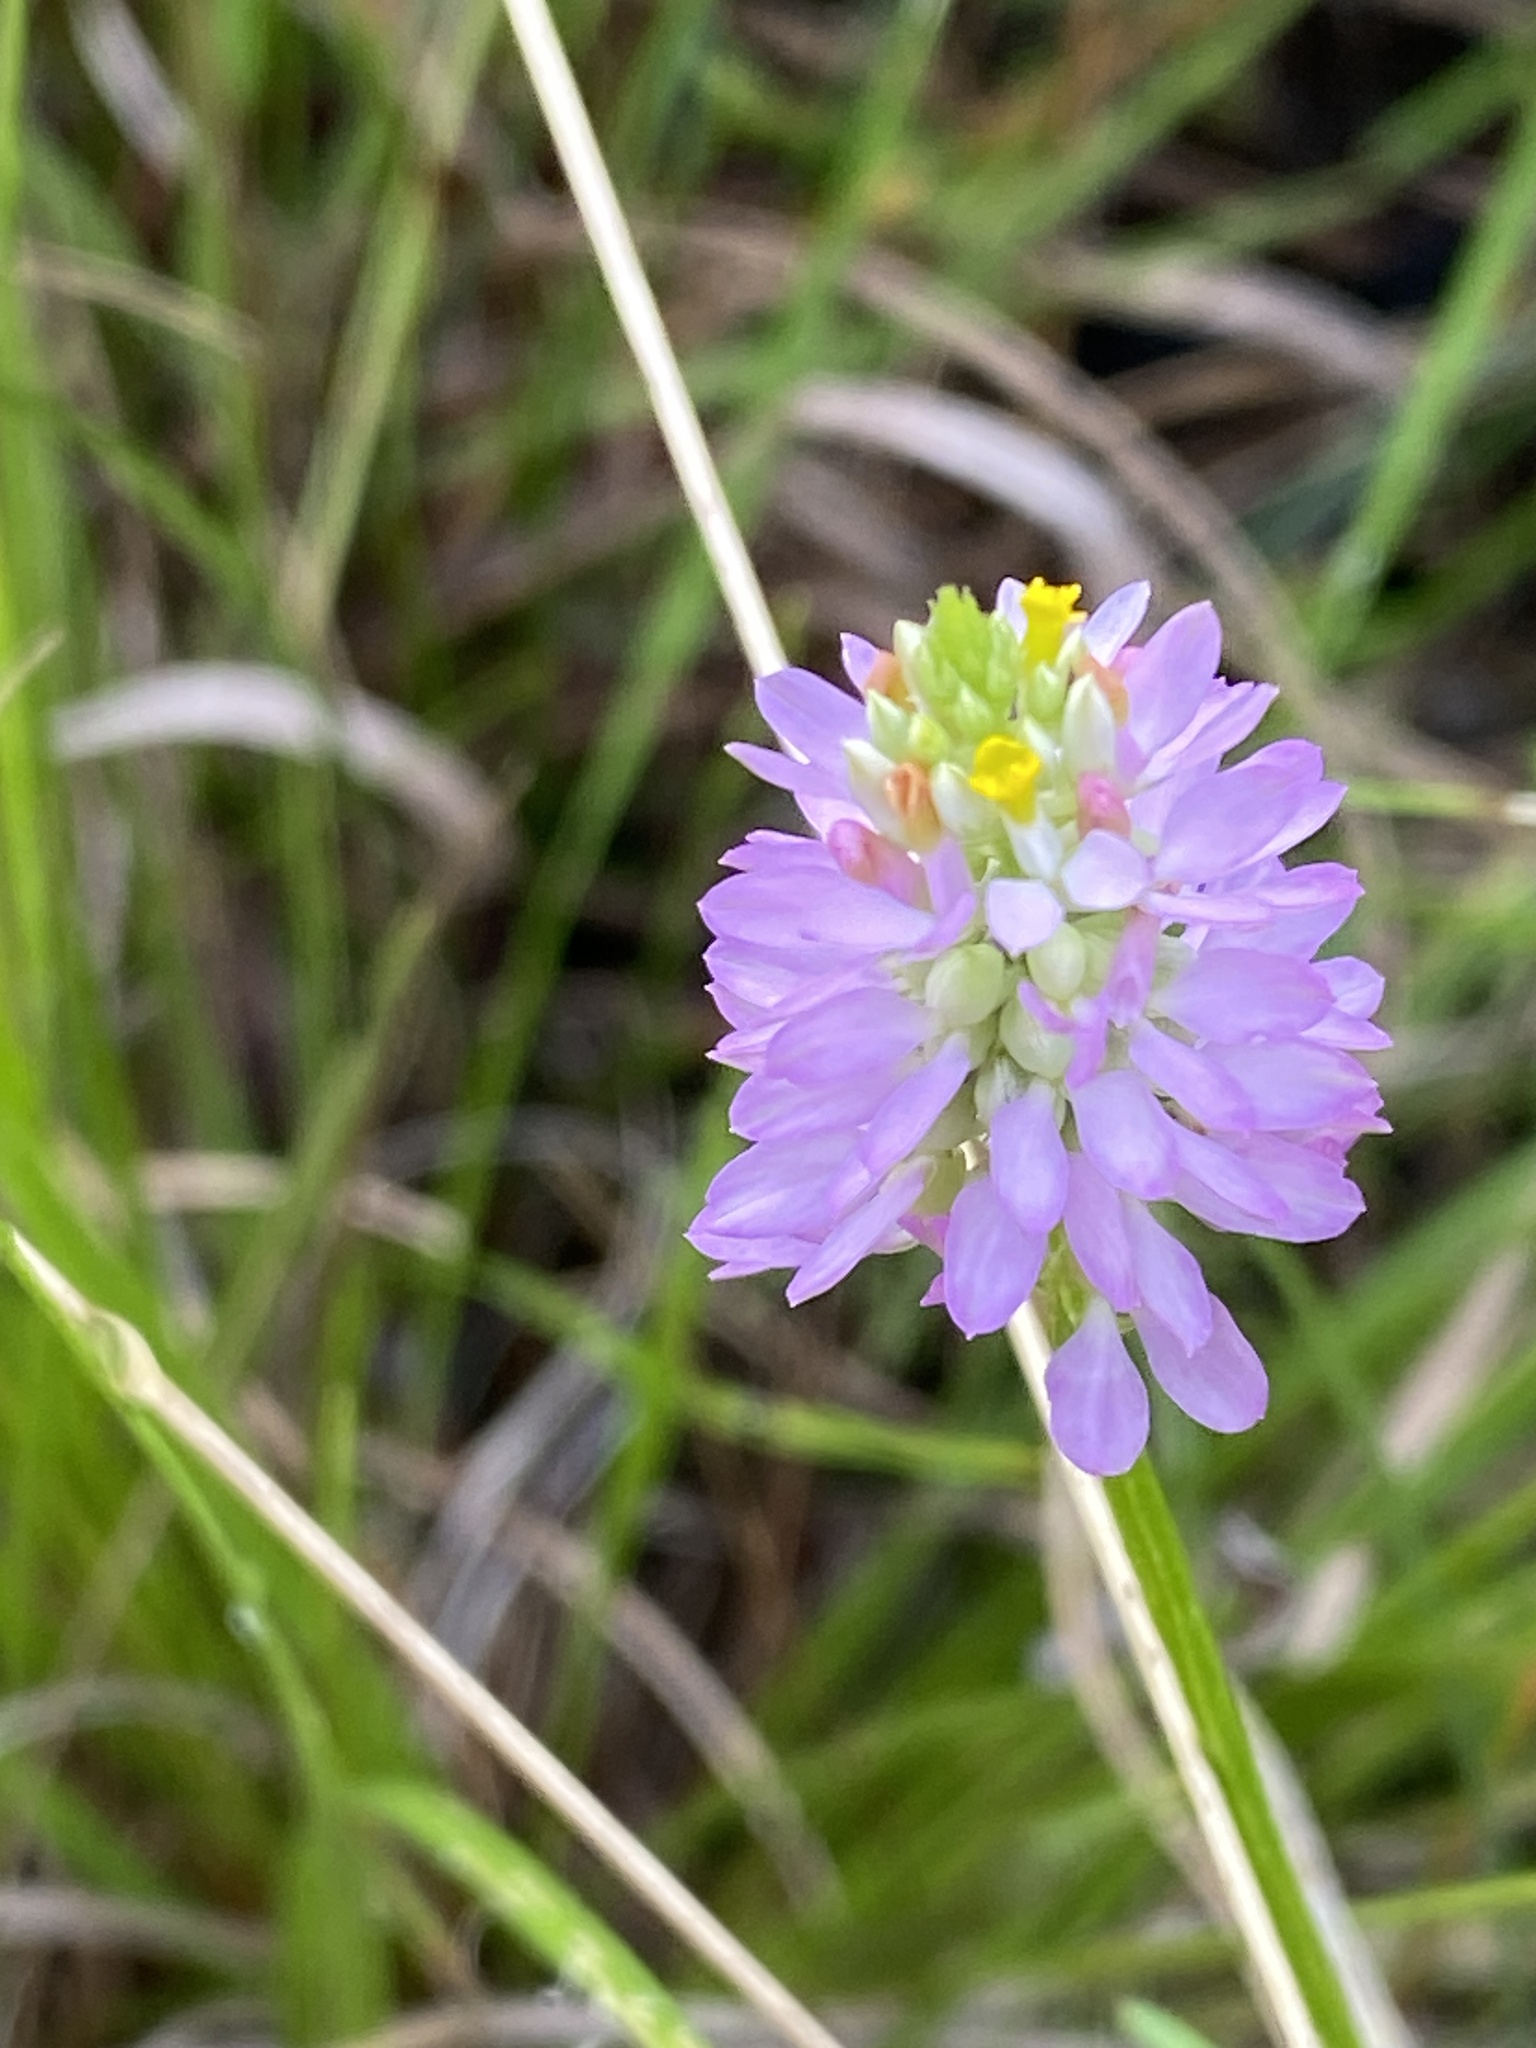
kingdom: Plantae
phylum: Tracheophyta
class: Magnoliopsida
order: Fabales
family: Polygalaceae
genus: Polygala
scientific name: Polygala curtissii
